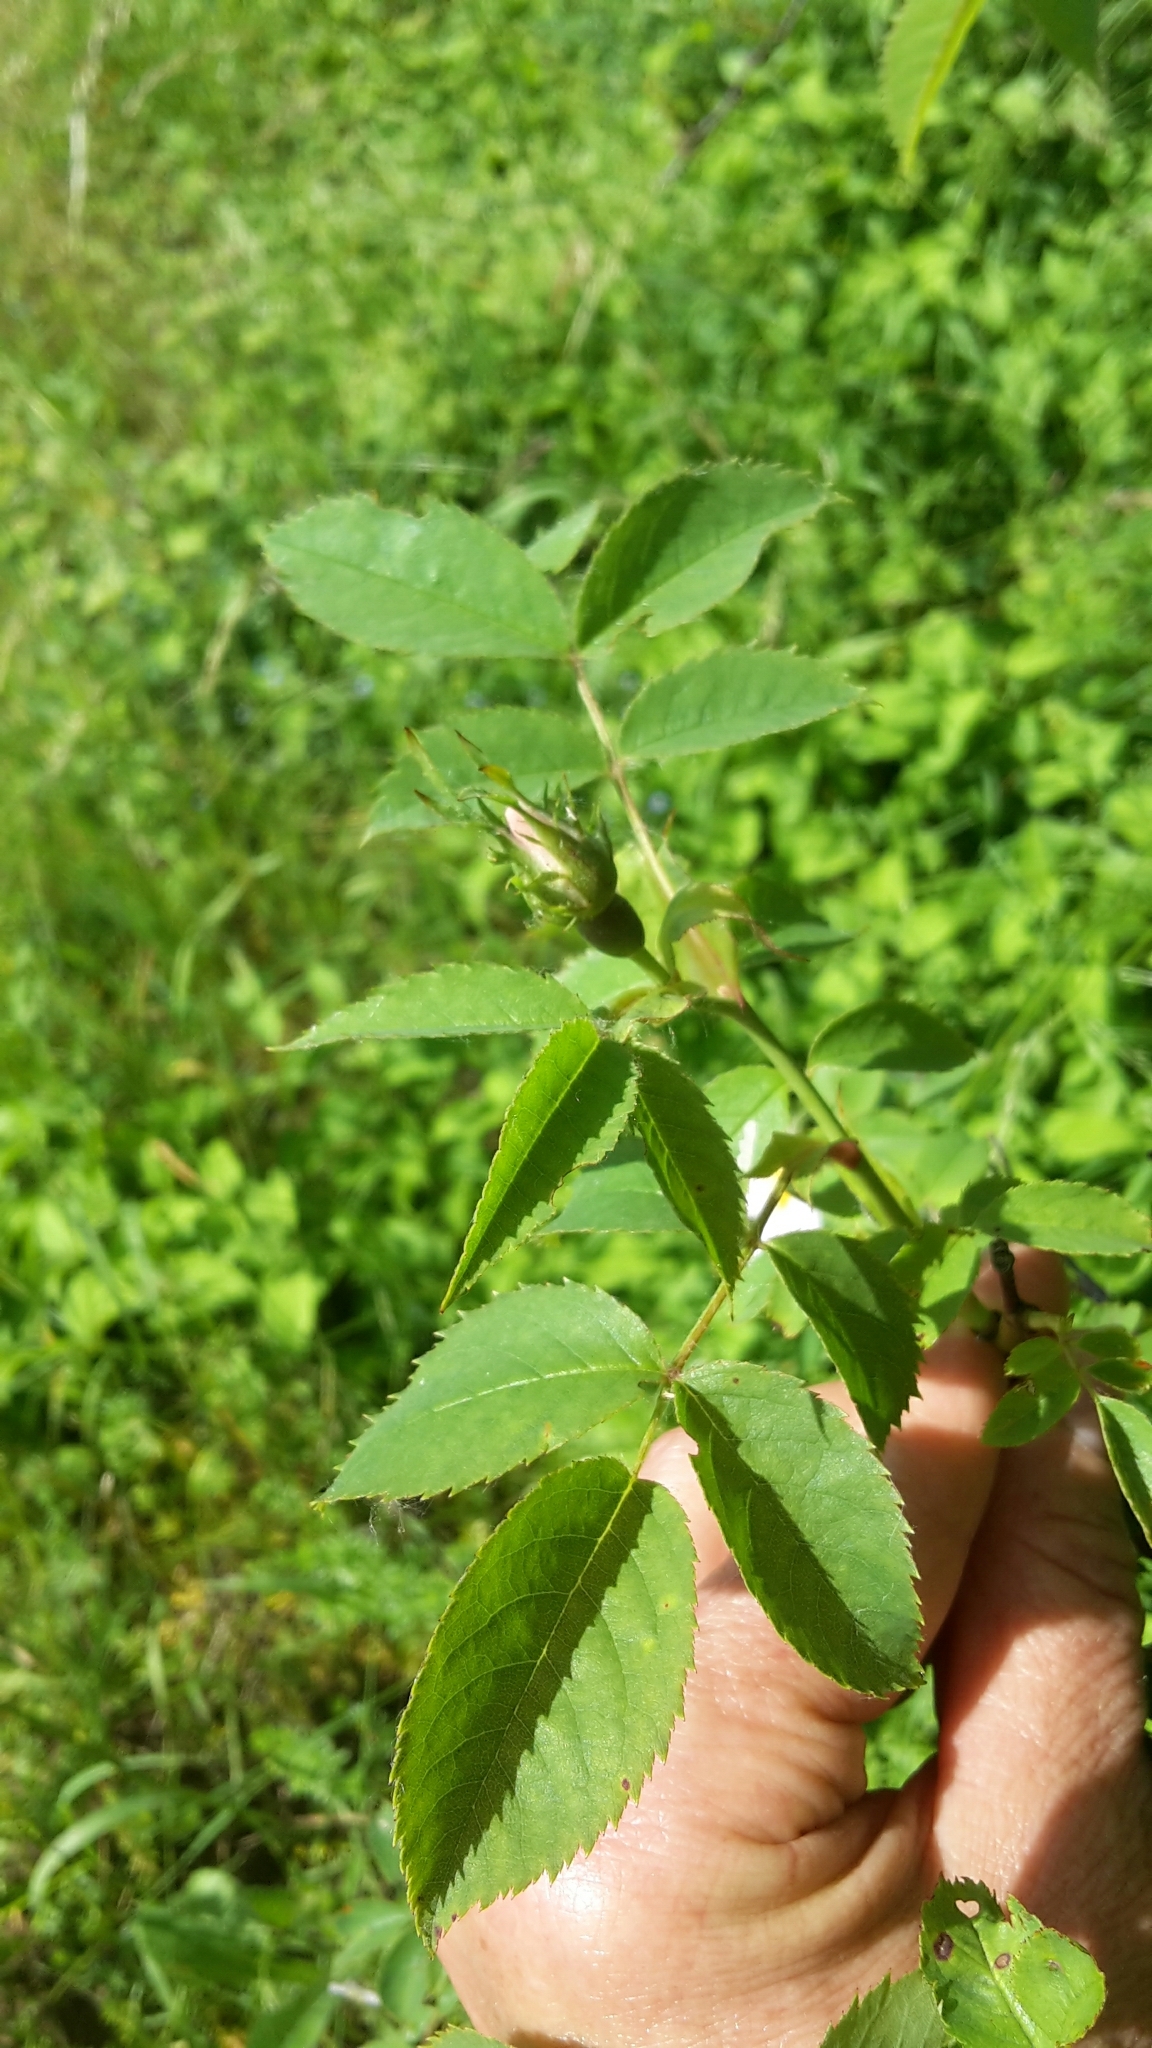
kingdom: Plantae
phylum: Tracheophyta
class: Magnoliopsida
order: Rosales
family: Rosaceae
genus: Rosa
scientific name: Rosa canina
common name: Dog rose
